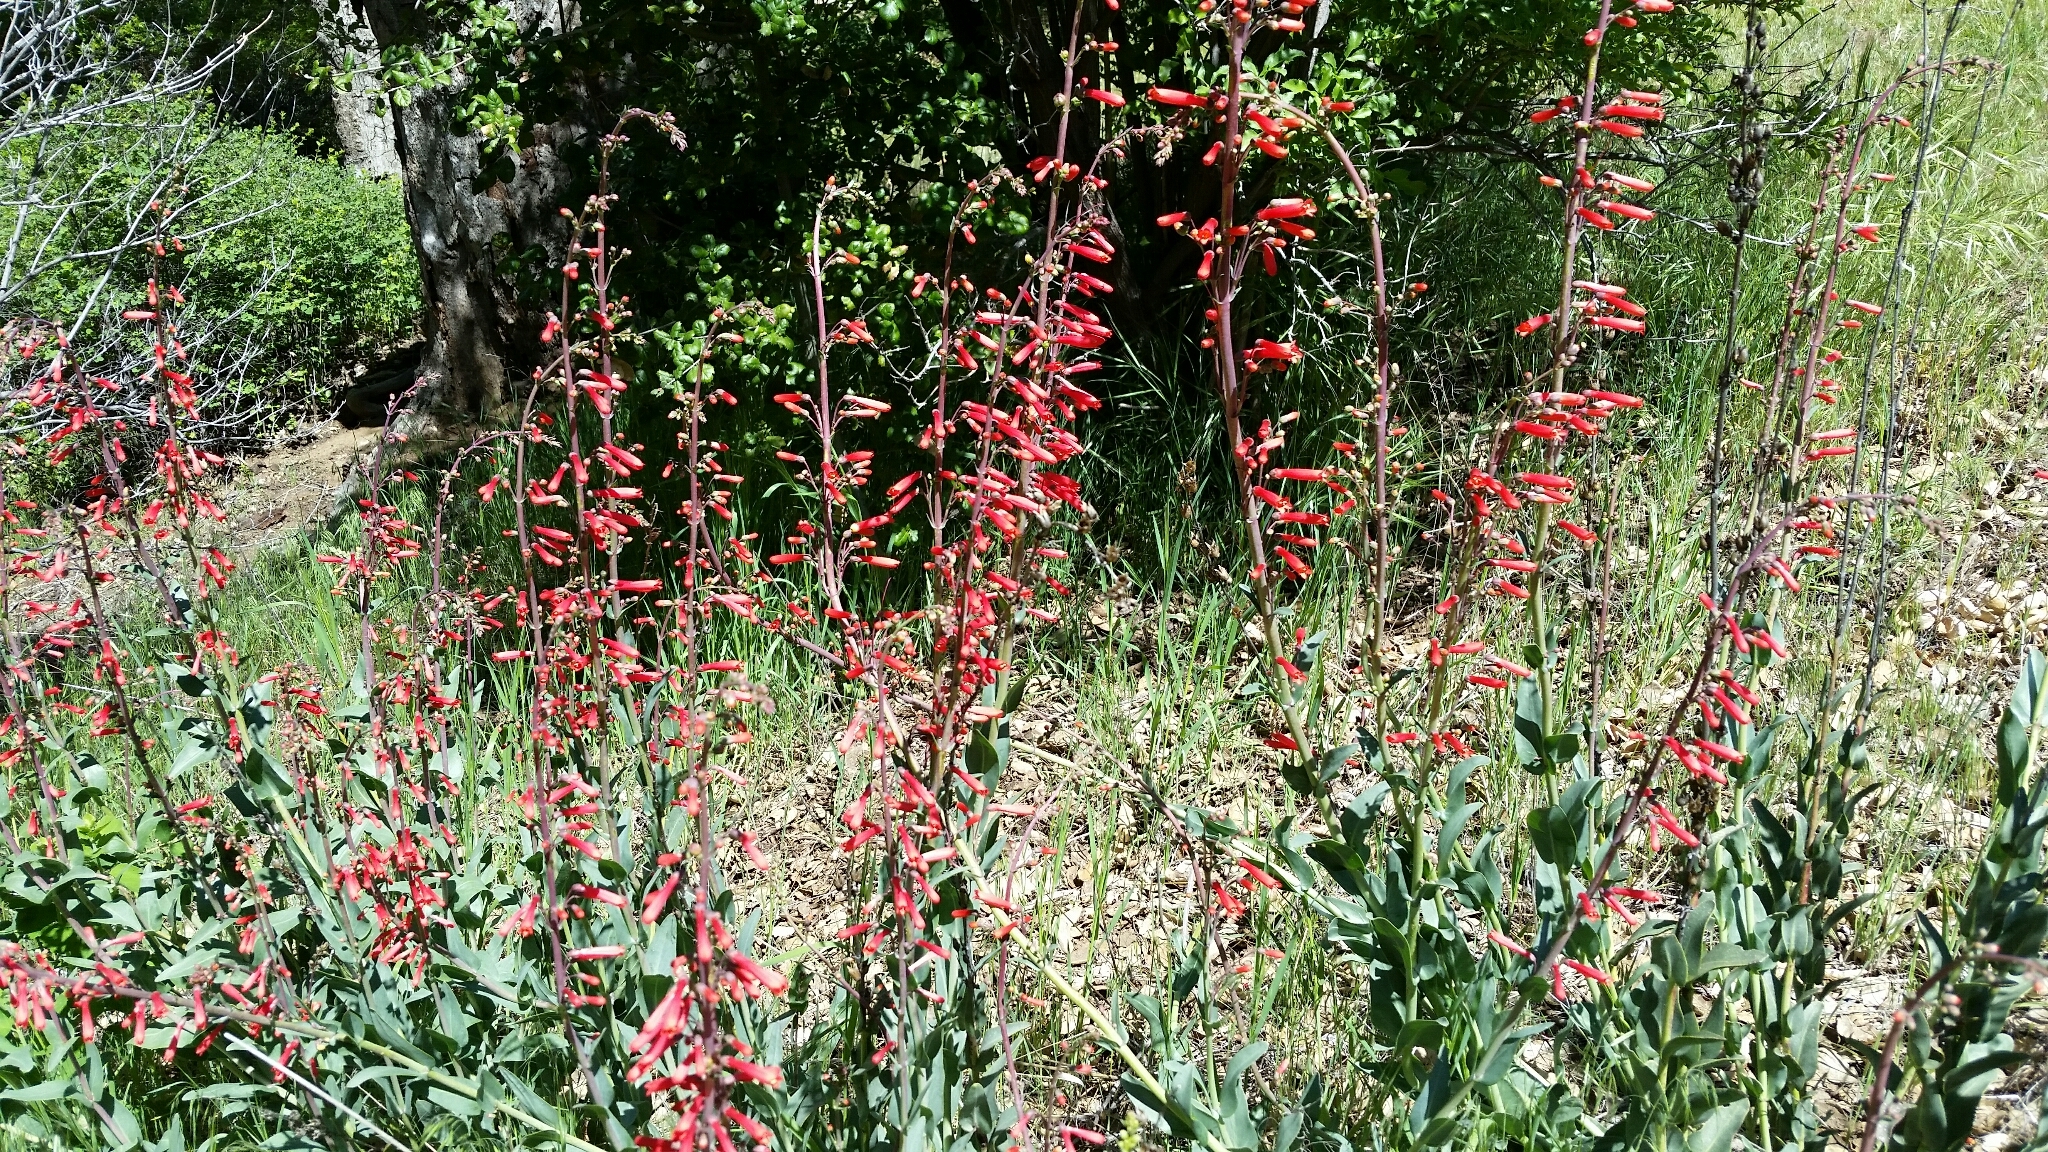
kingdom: Plantae
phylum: Tracheophyta
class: Magnoliopsida
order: Lamiales
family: Plantaginaceae
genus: Penstemon
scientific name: Penstemon centranthifolius
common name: Scarlet bugler
